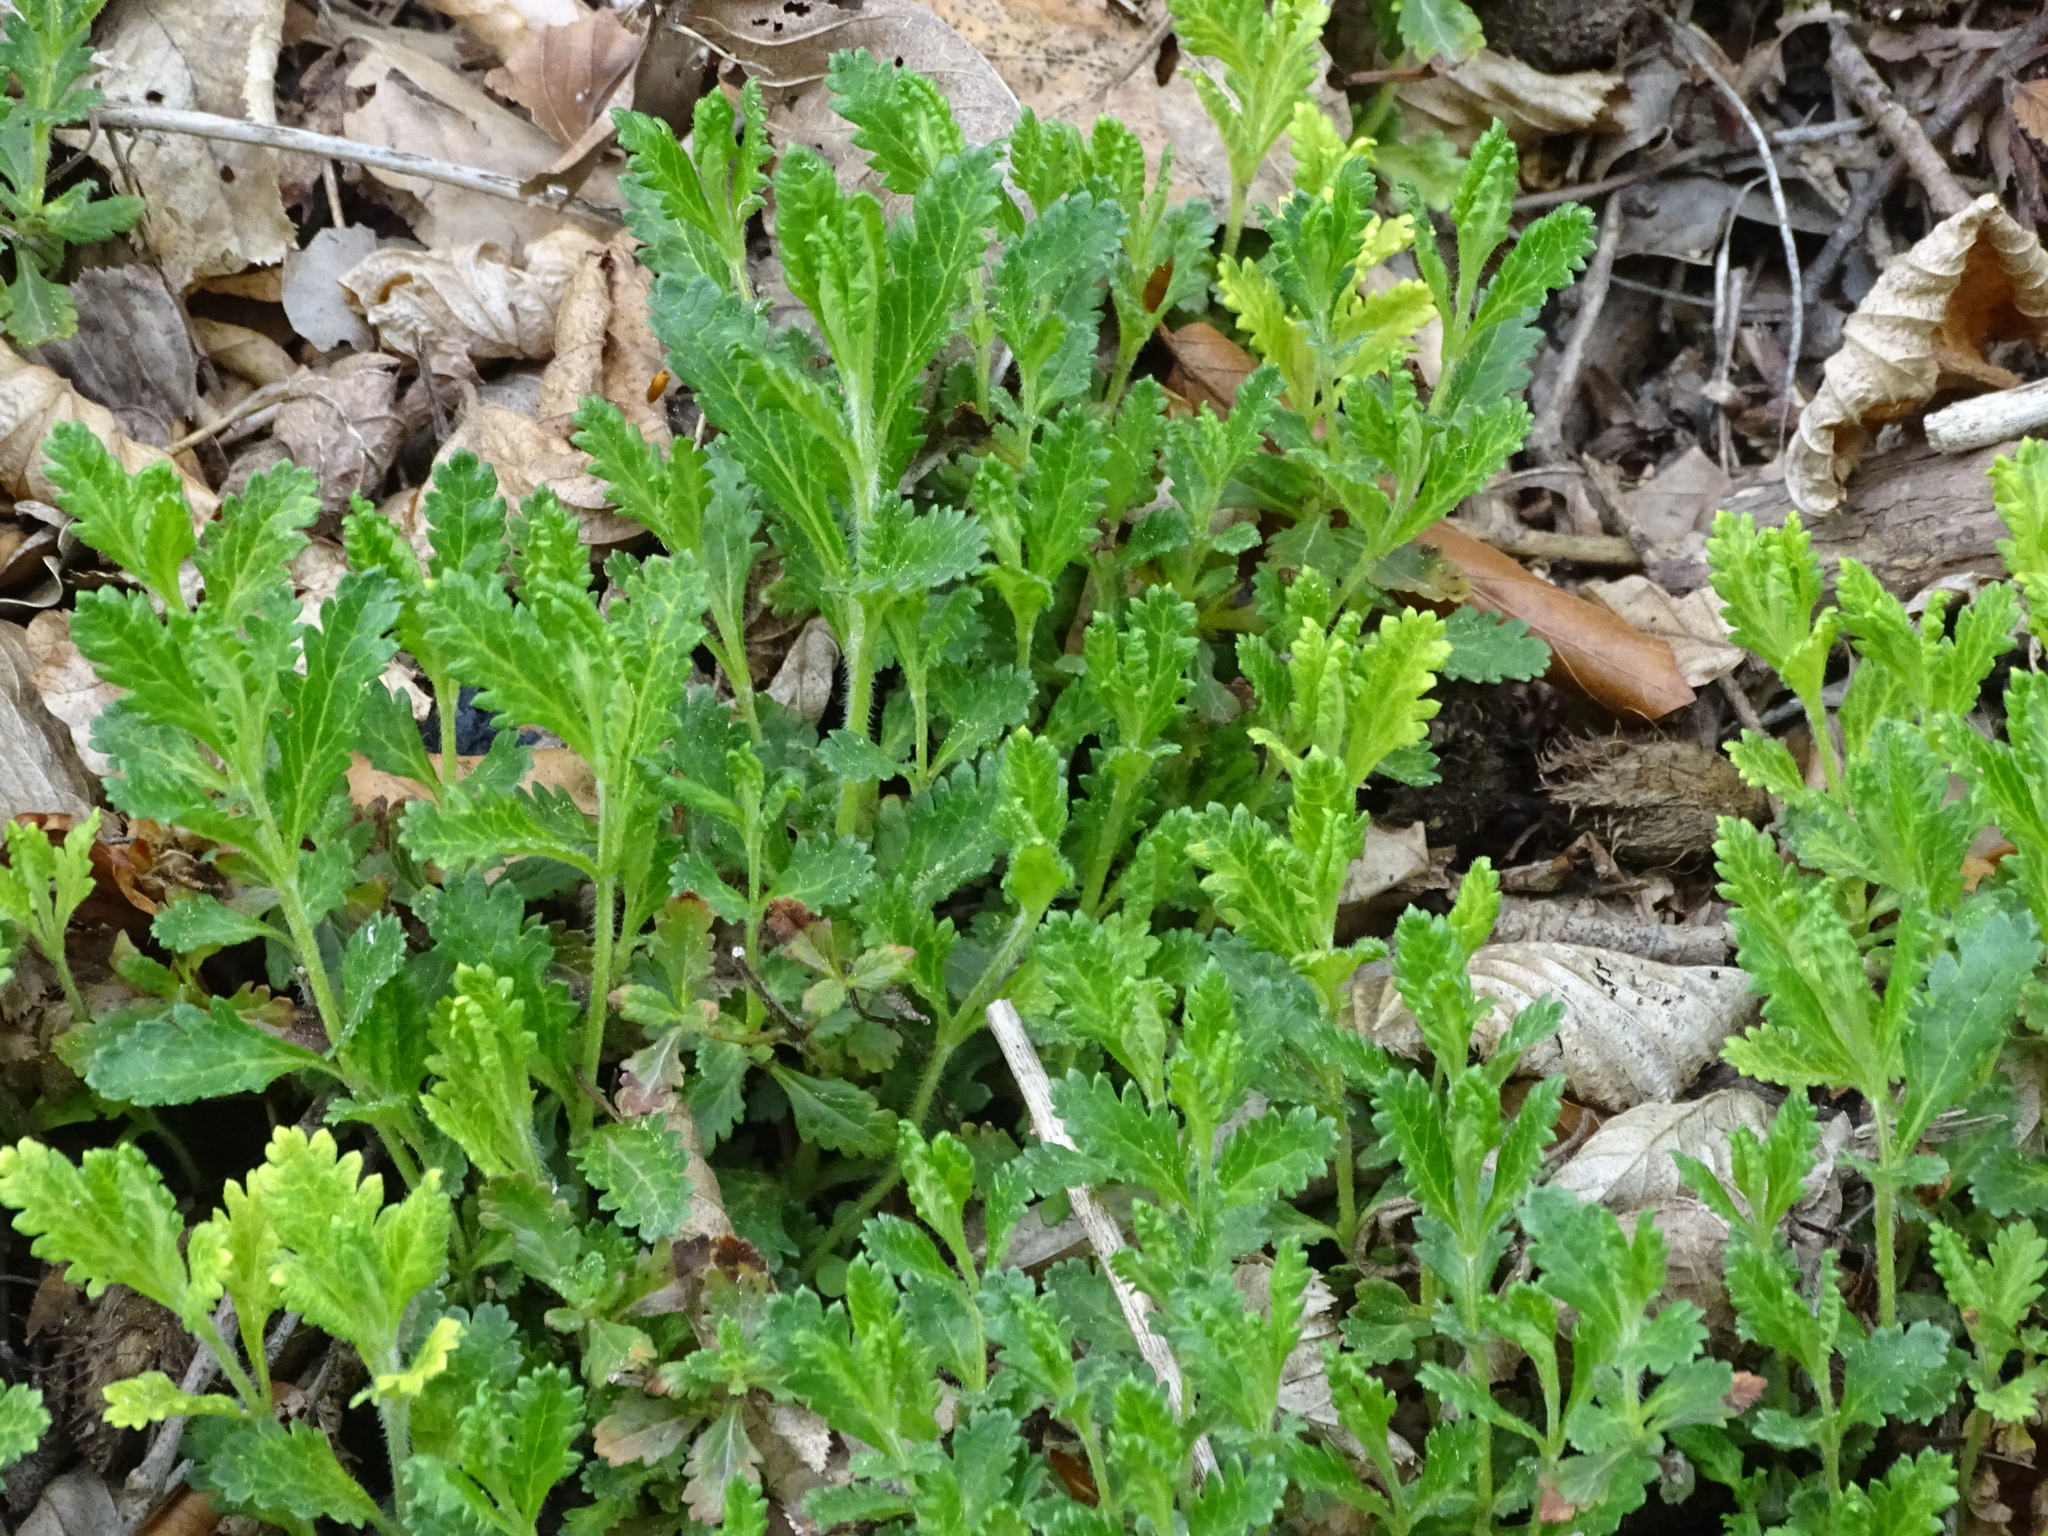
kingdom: Plantae
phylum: Tracheophyta
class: Magnoliopsida
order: Lamiales
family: Lamiaceae
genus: Teucrium
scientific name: Teucrium chamaedrys
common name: Wall germander
